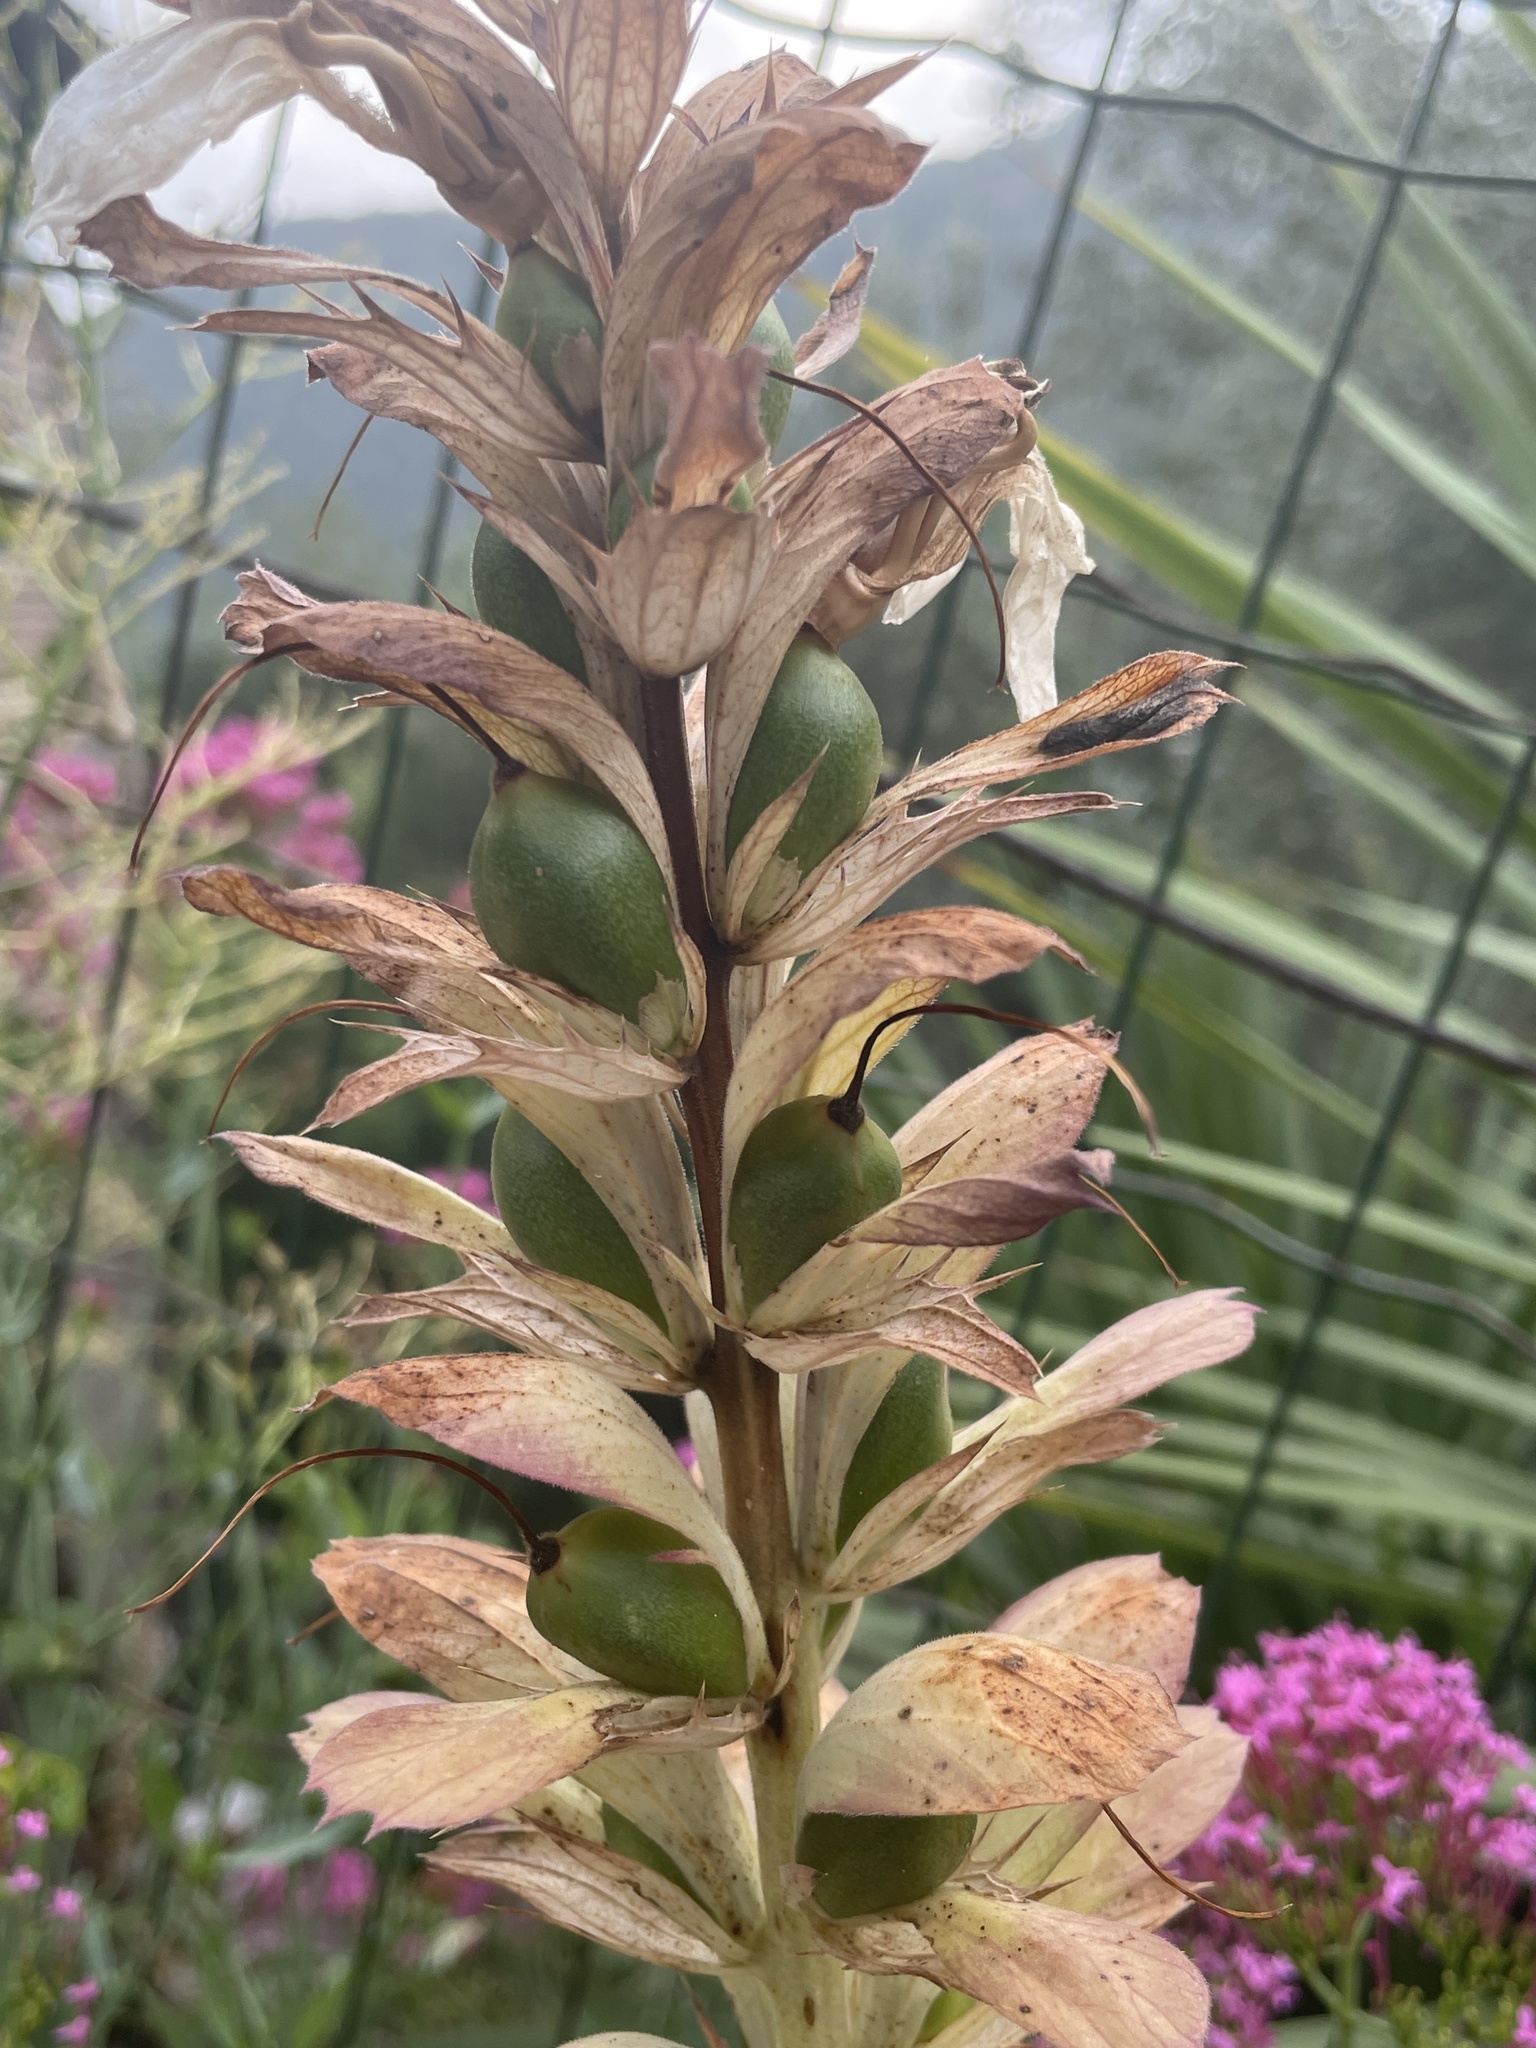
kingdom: Plantae
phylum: Tracheophyta
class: Magnoliopsida
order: Lamiales
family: Acanthaceae
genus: Acanthus
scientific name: Acanthus mollis
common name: Bear's-breech
